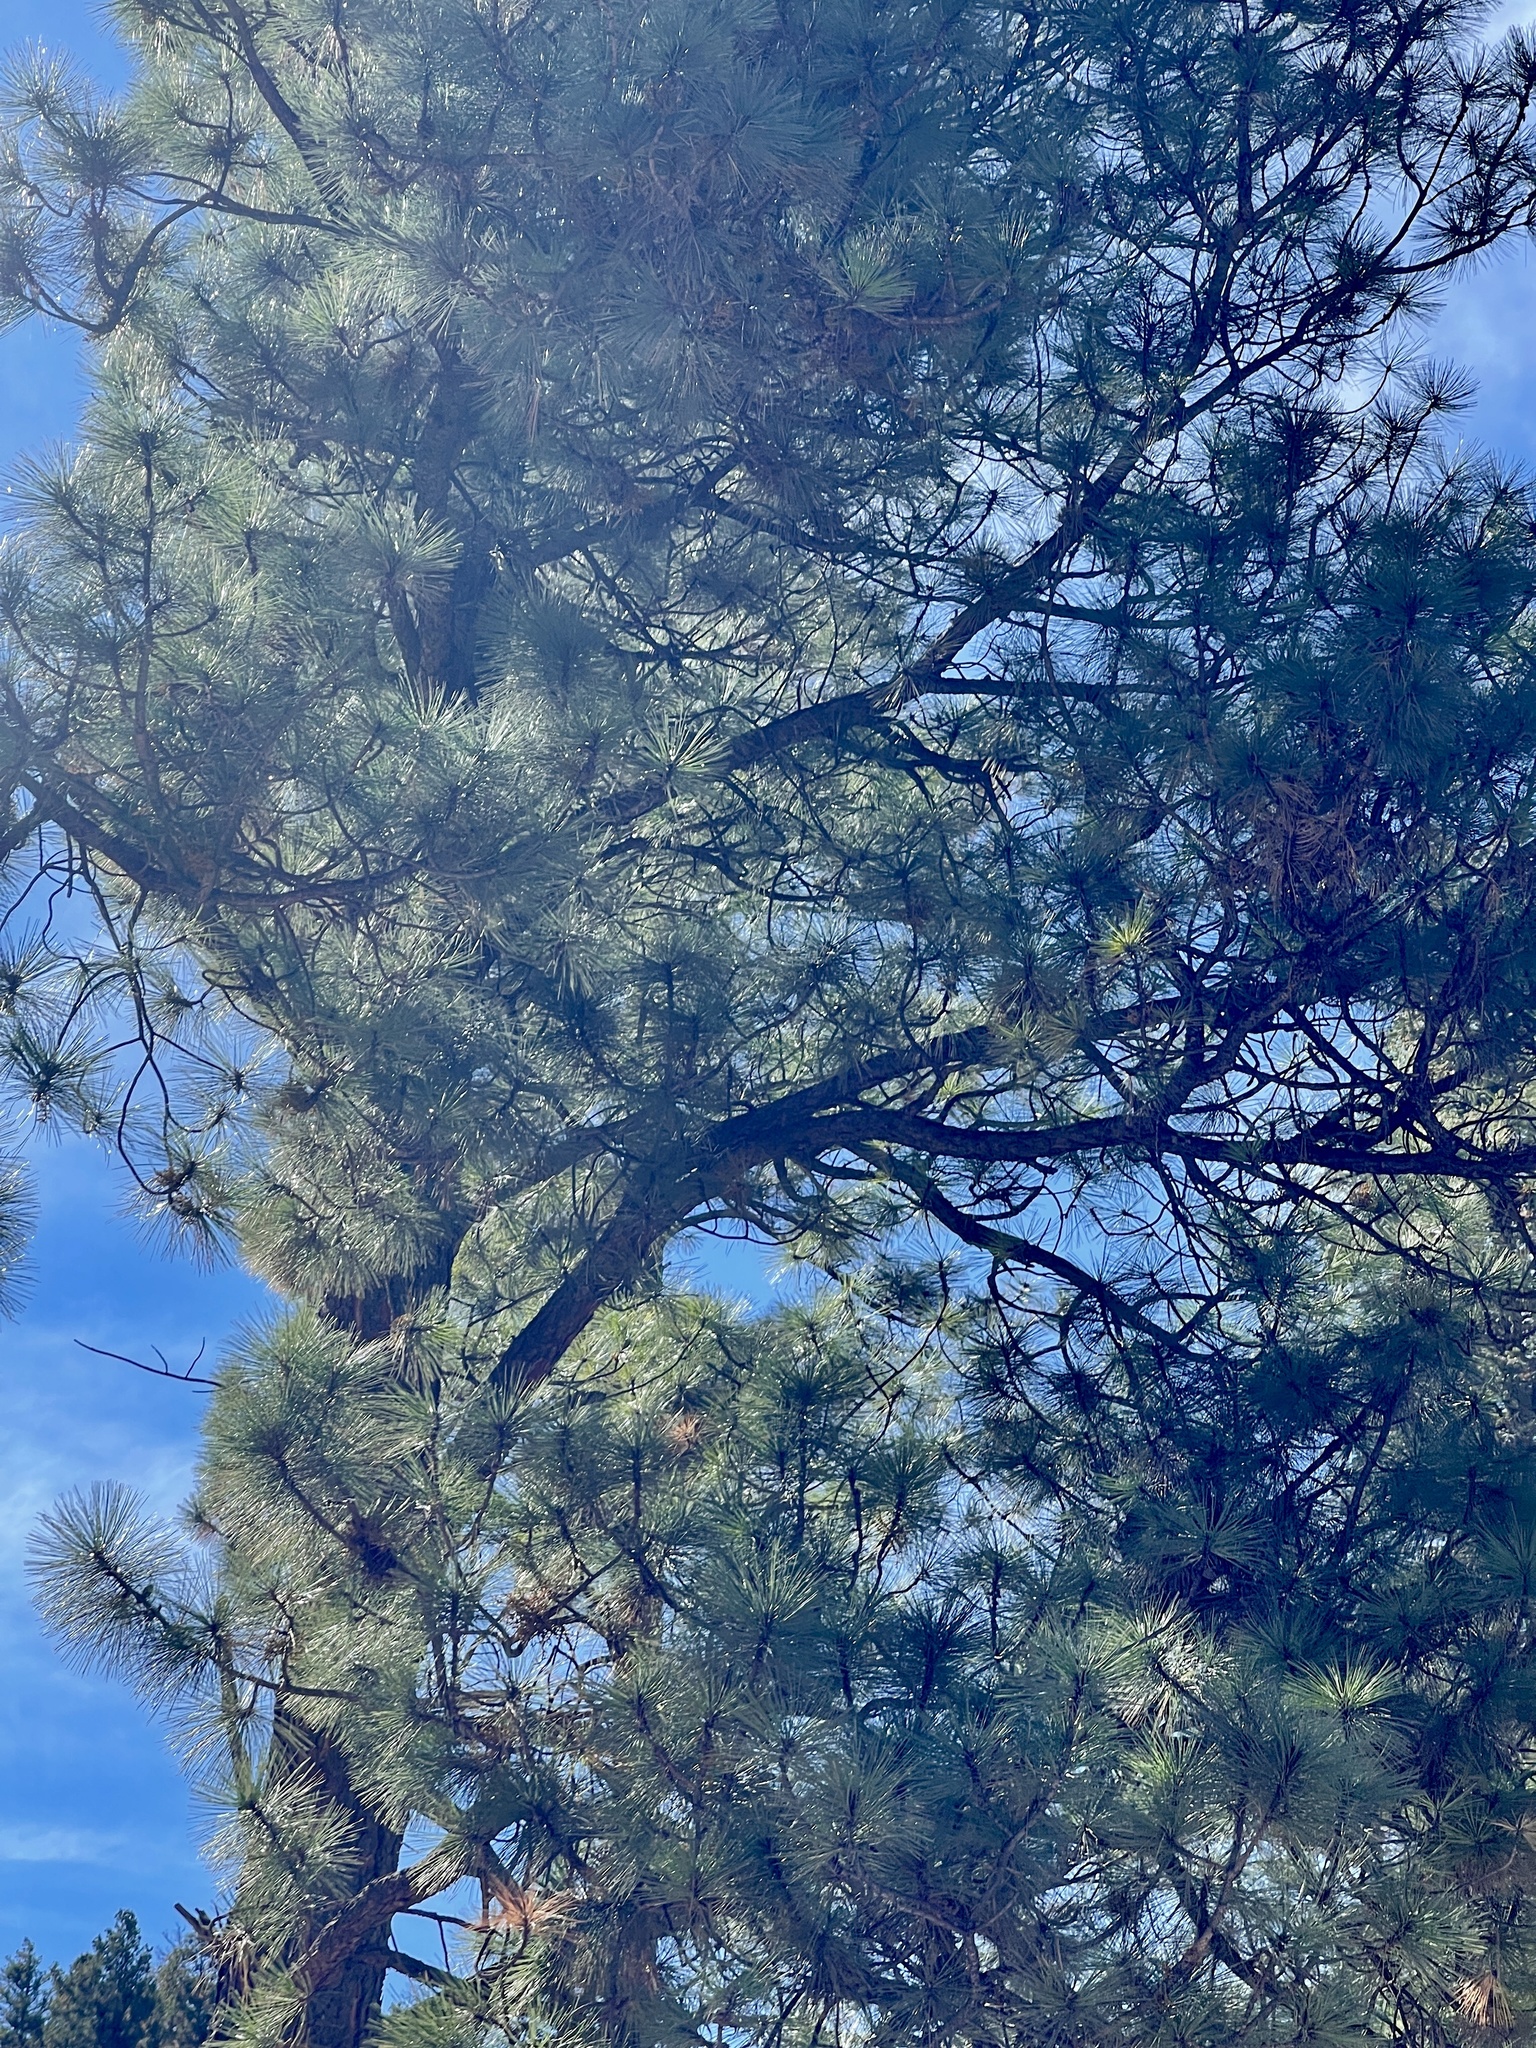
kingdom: Plantae
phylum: Tracheophyta
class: Pinopsida
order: Pinales
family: Pinaceae
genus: Pinus
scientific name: Pinus ponderosa
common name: Western yellow-pine
